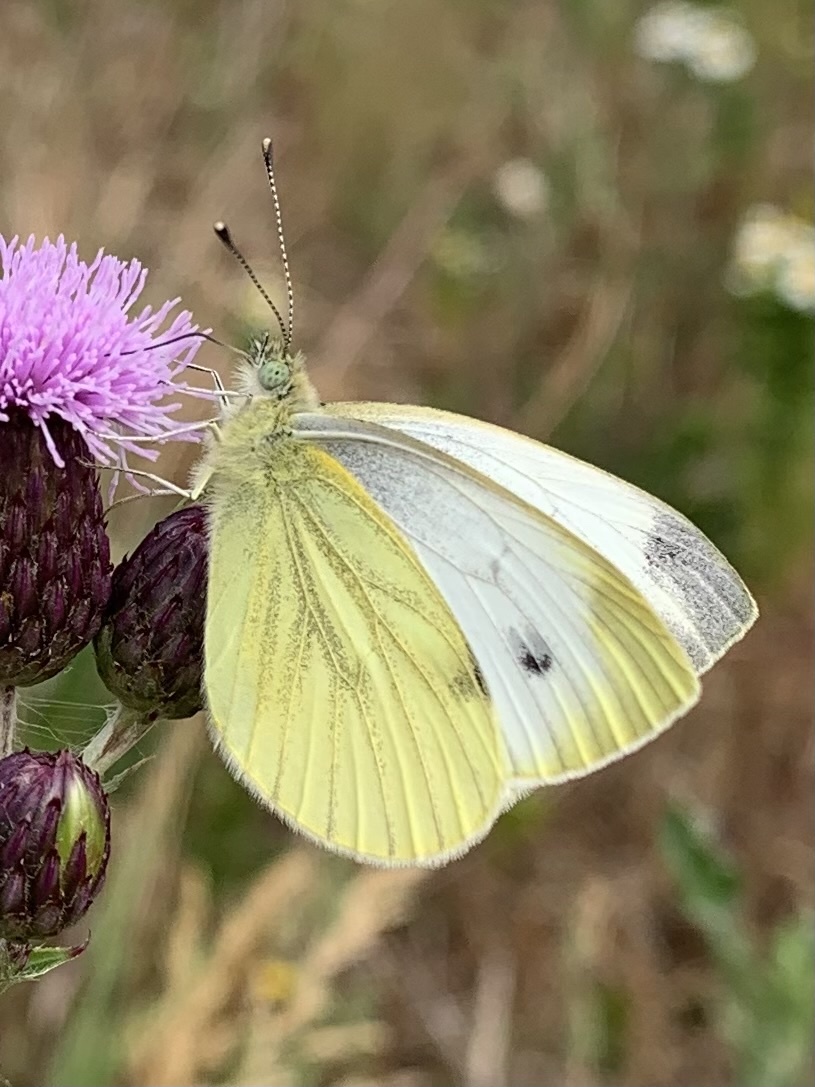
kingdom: Animalia
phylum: Arthropoda
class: Insecta
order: Lepidoptera
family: Pieridae
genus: Pieris
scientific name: Pieris napi
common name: Green-veined white
